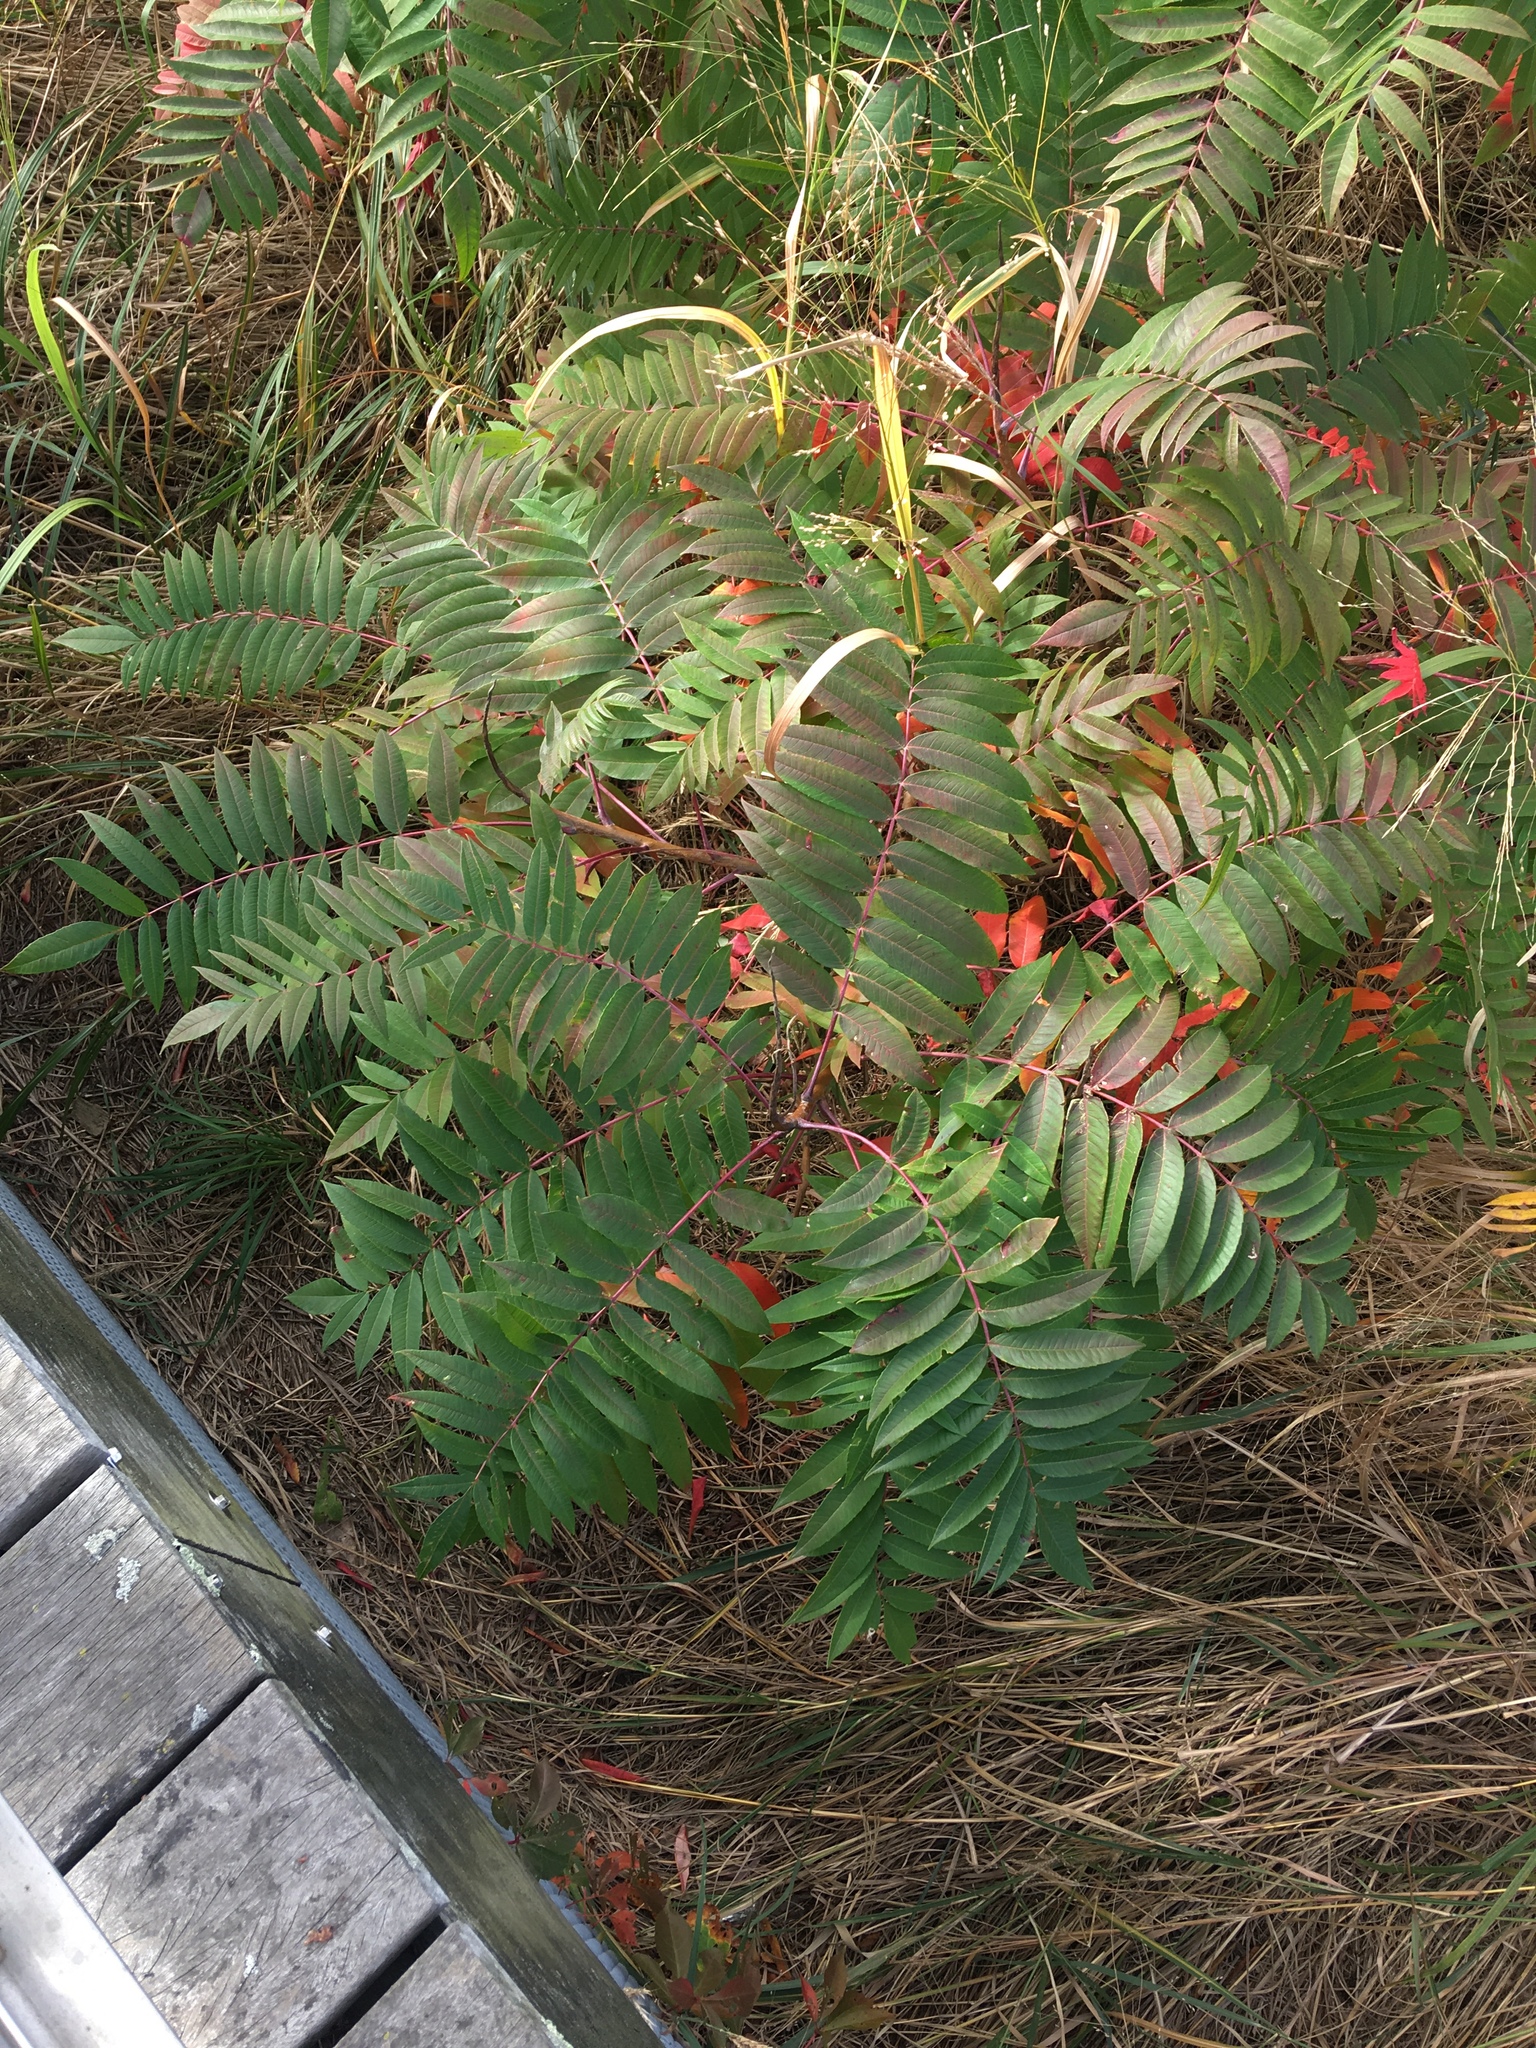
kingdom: Plantae
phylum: Tracheophyta
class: Magnoliopsida
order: Sapindales
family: Anacardiaceae
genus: Rhus
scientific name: Rhus glabra
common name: Scarlet sumac
